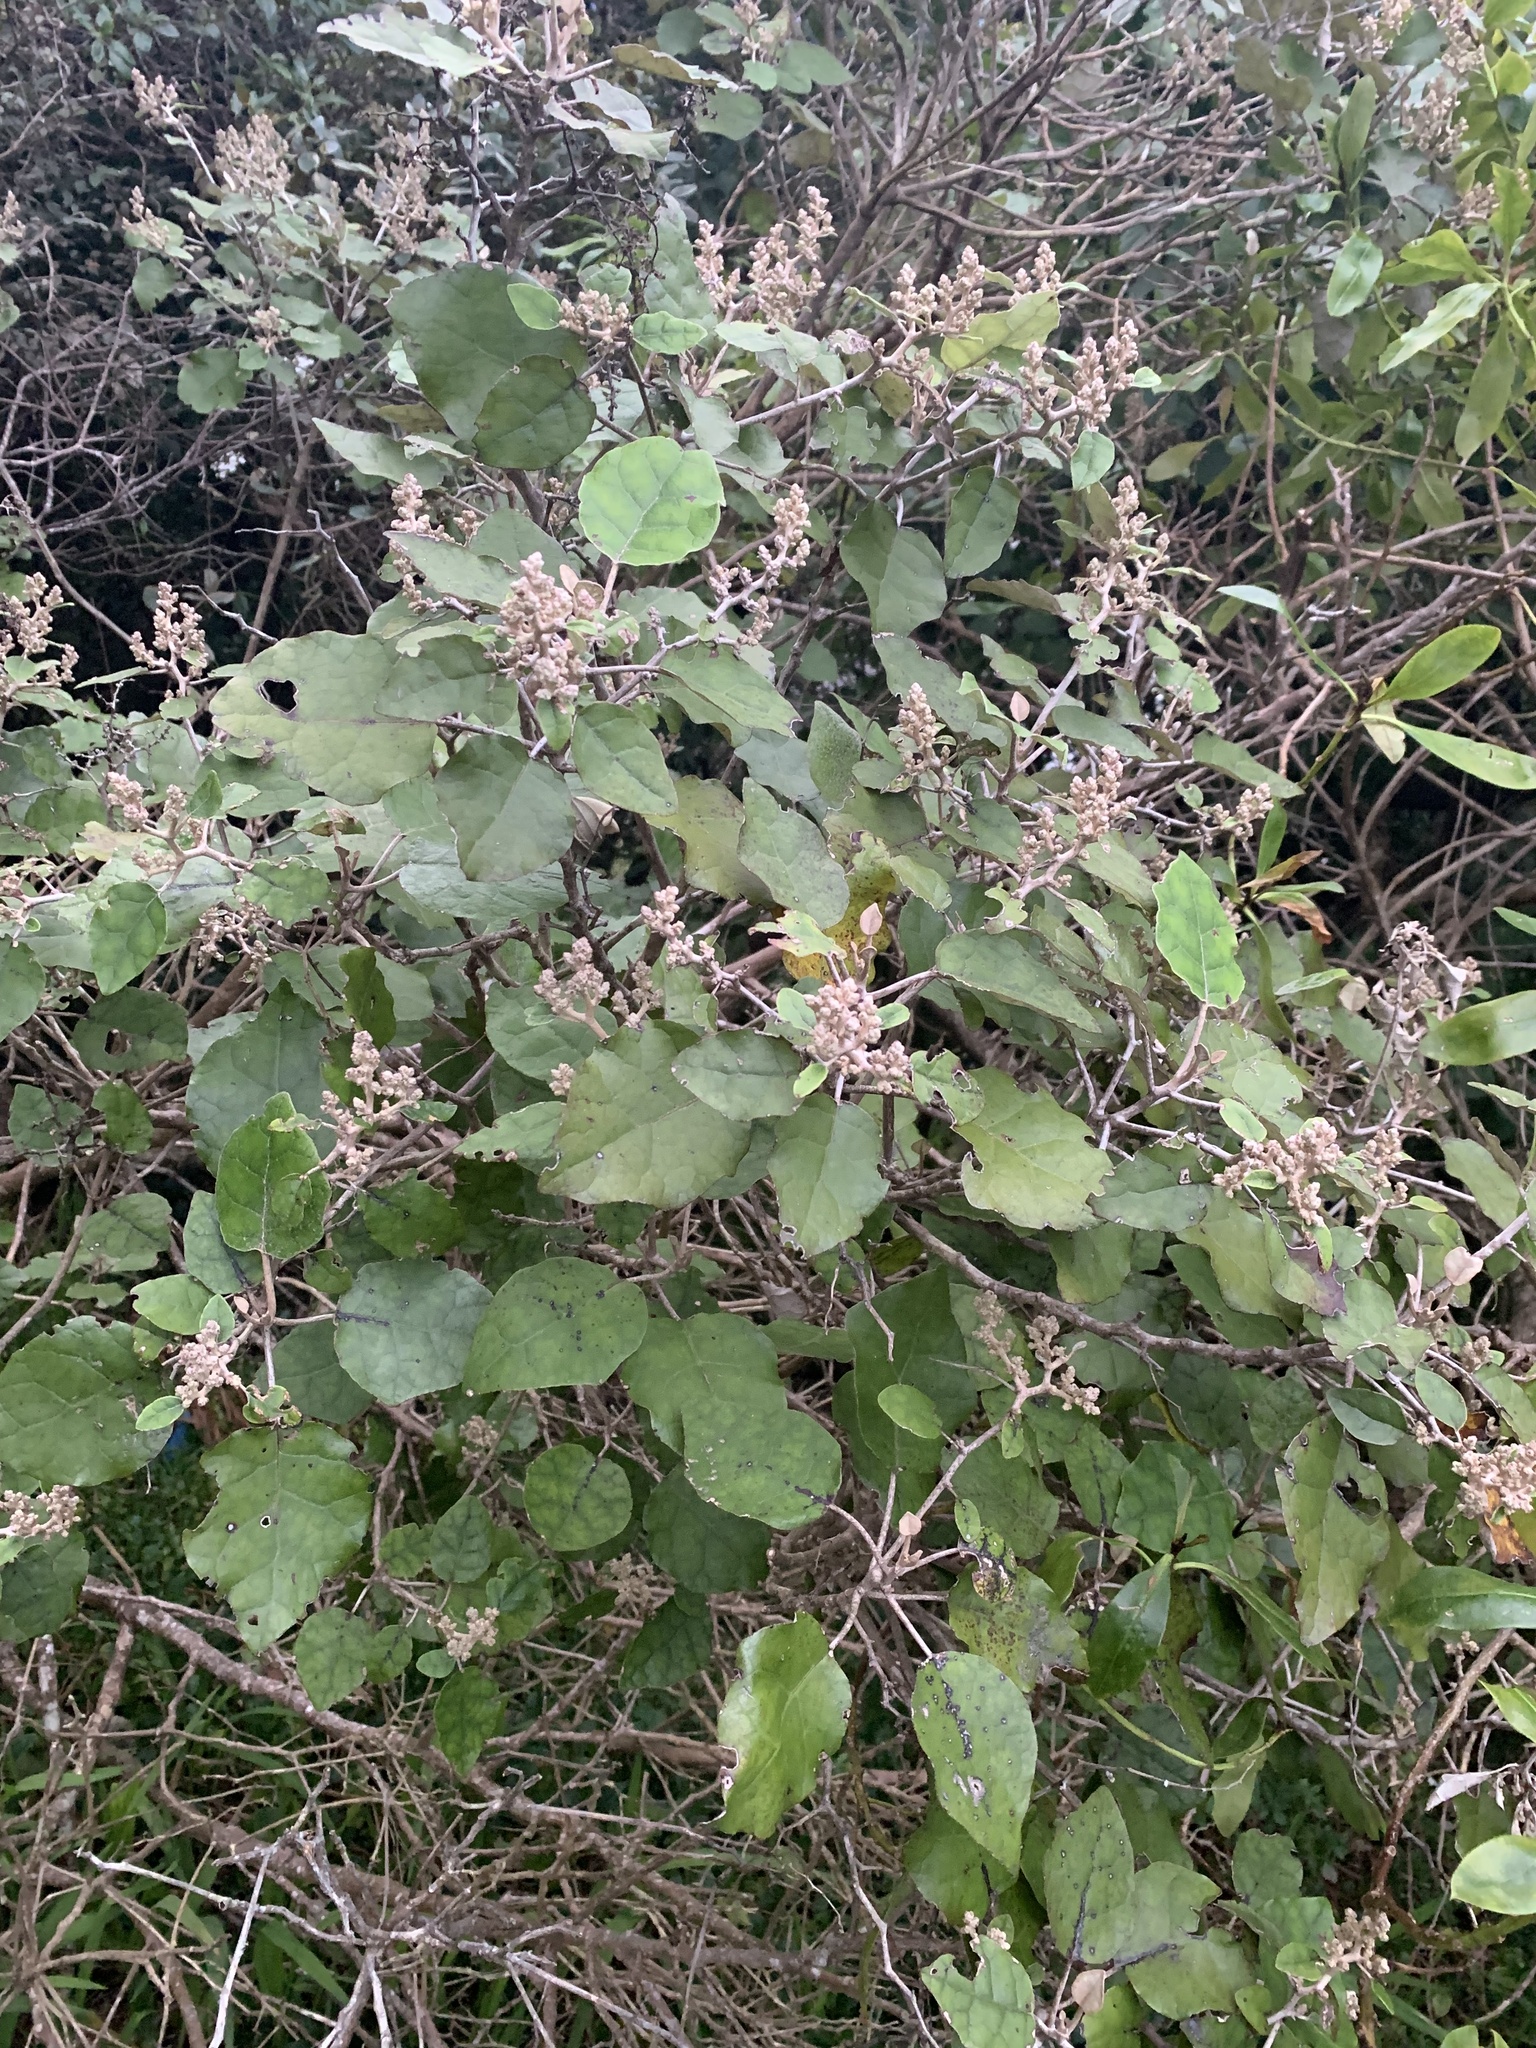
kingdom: Plantae
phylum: Tracheophyta
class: Magnoliopsida
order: Asterales
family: Asteraceae
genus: Brachyglottis
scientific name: Brachyglottis repanda
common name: Hedge ragwort
